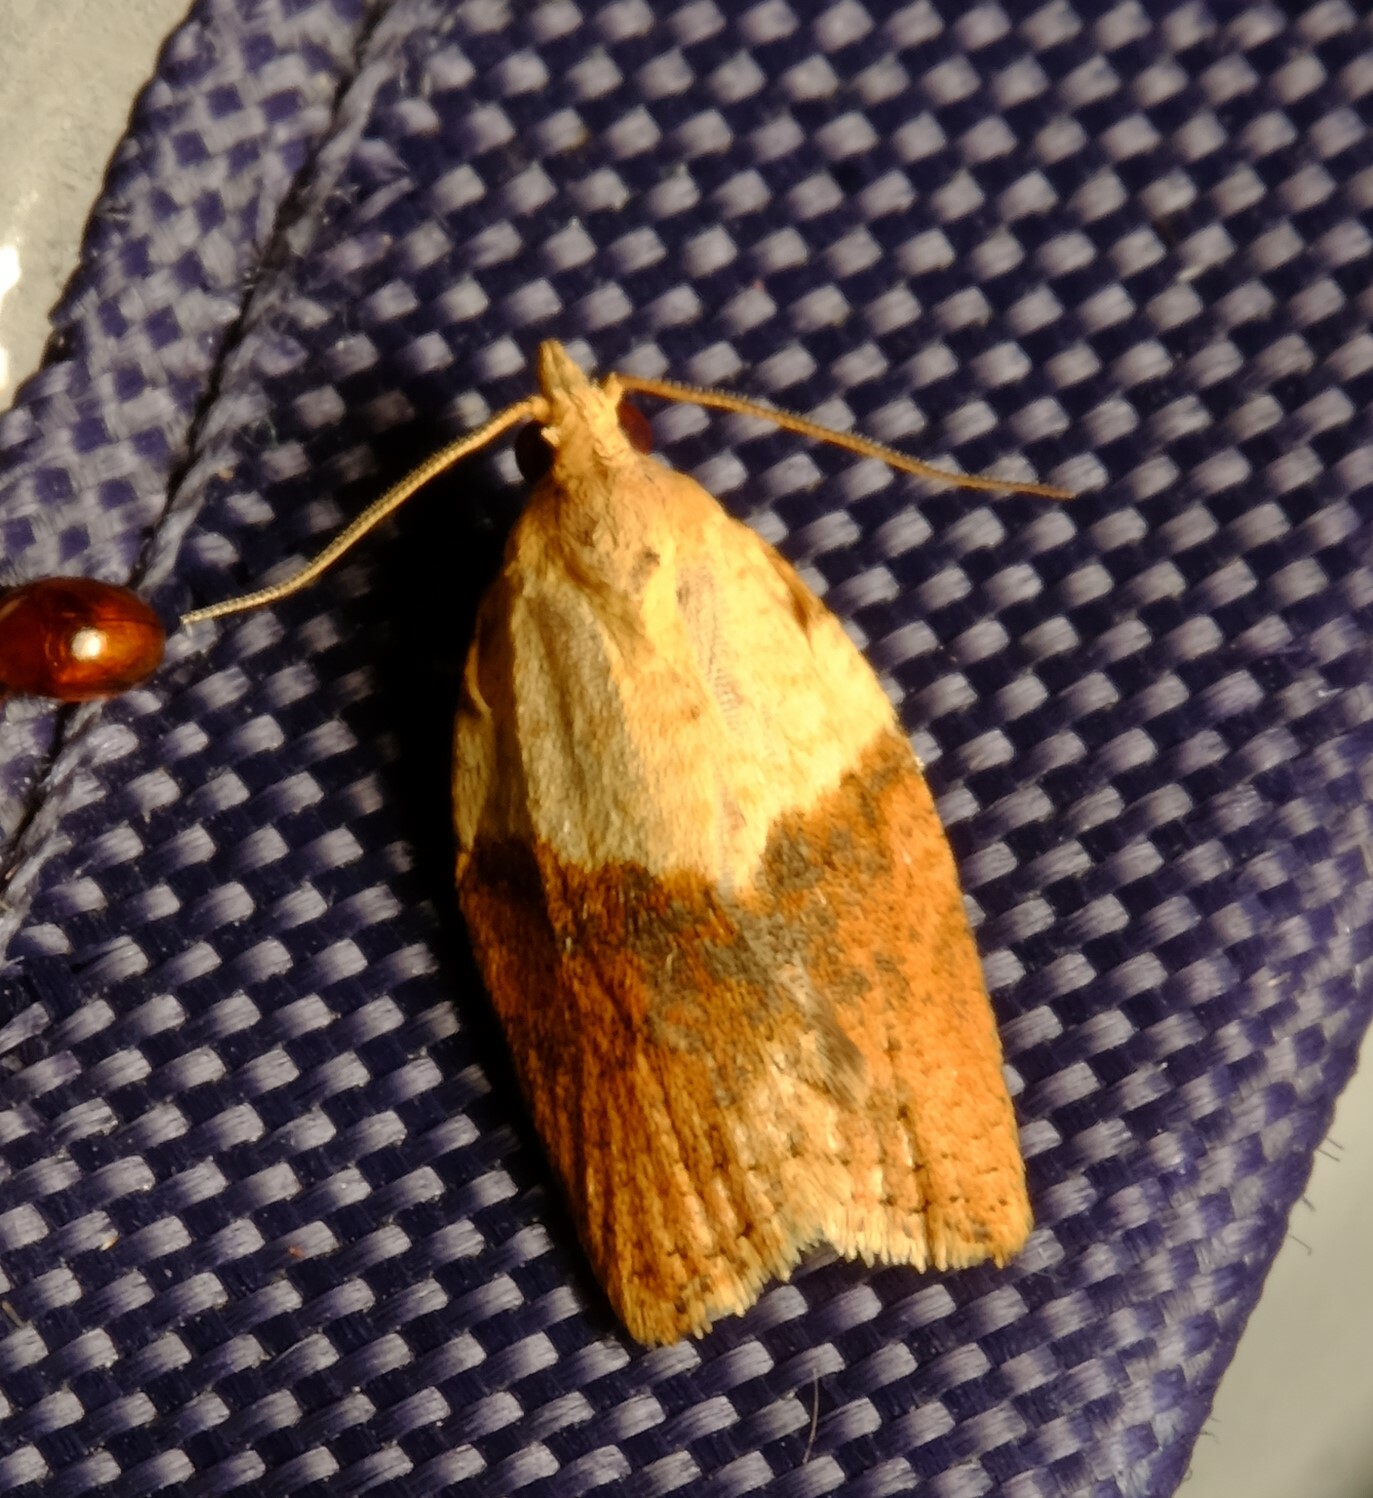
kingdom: Animalia
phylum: Arthropoda
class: Insecta
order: Lepidoptera
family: Tortricidae
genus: Epiphyas
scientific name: Epiphyas postvittana
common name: Light brown apple moth
